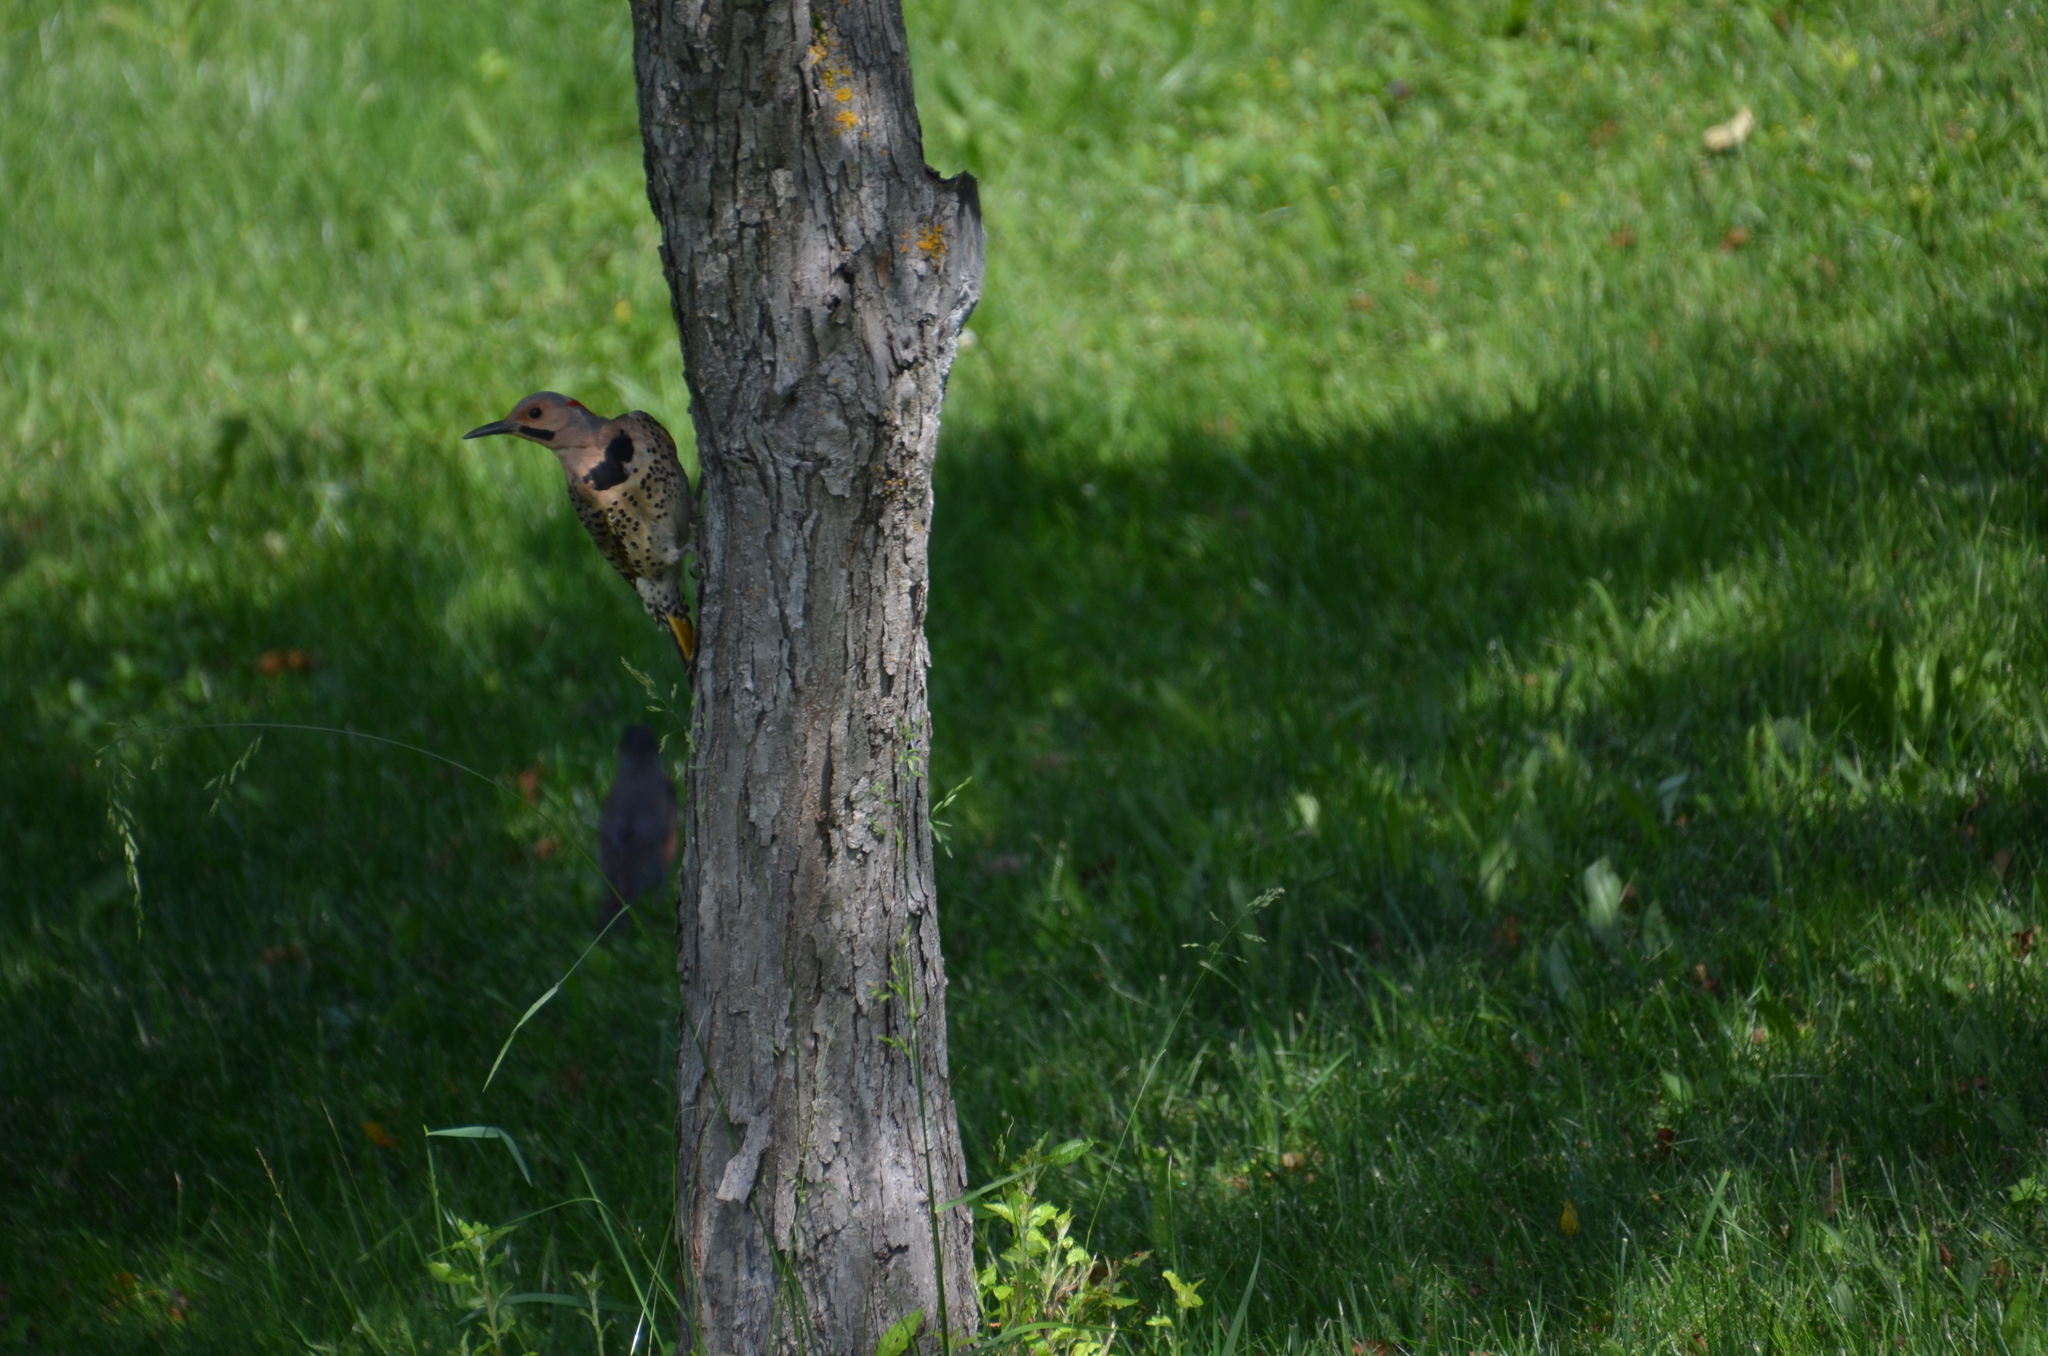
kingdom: Animalia
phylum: Chordata
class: Aves
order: Piciformes
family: Picidae
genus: Colaptes
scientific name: Colaptes auratus
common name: Northern flicker
